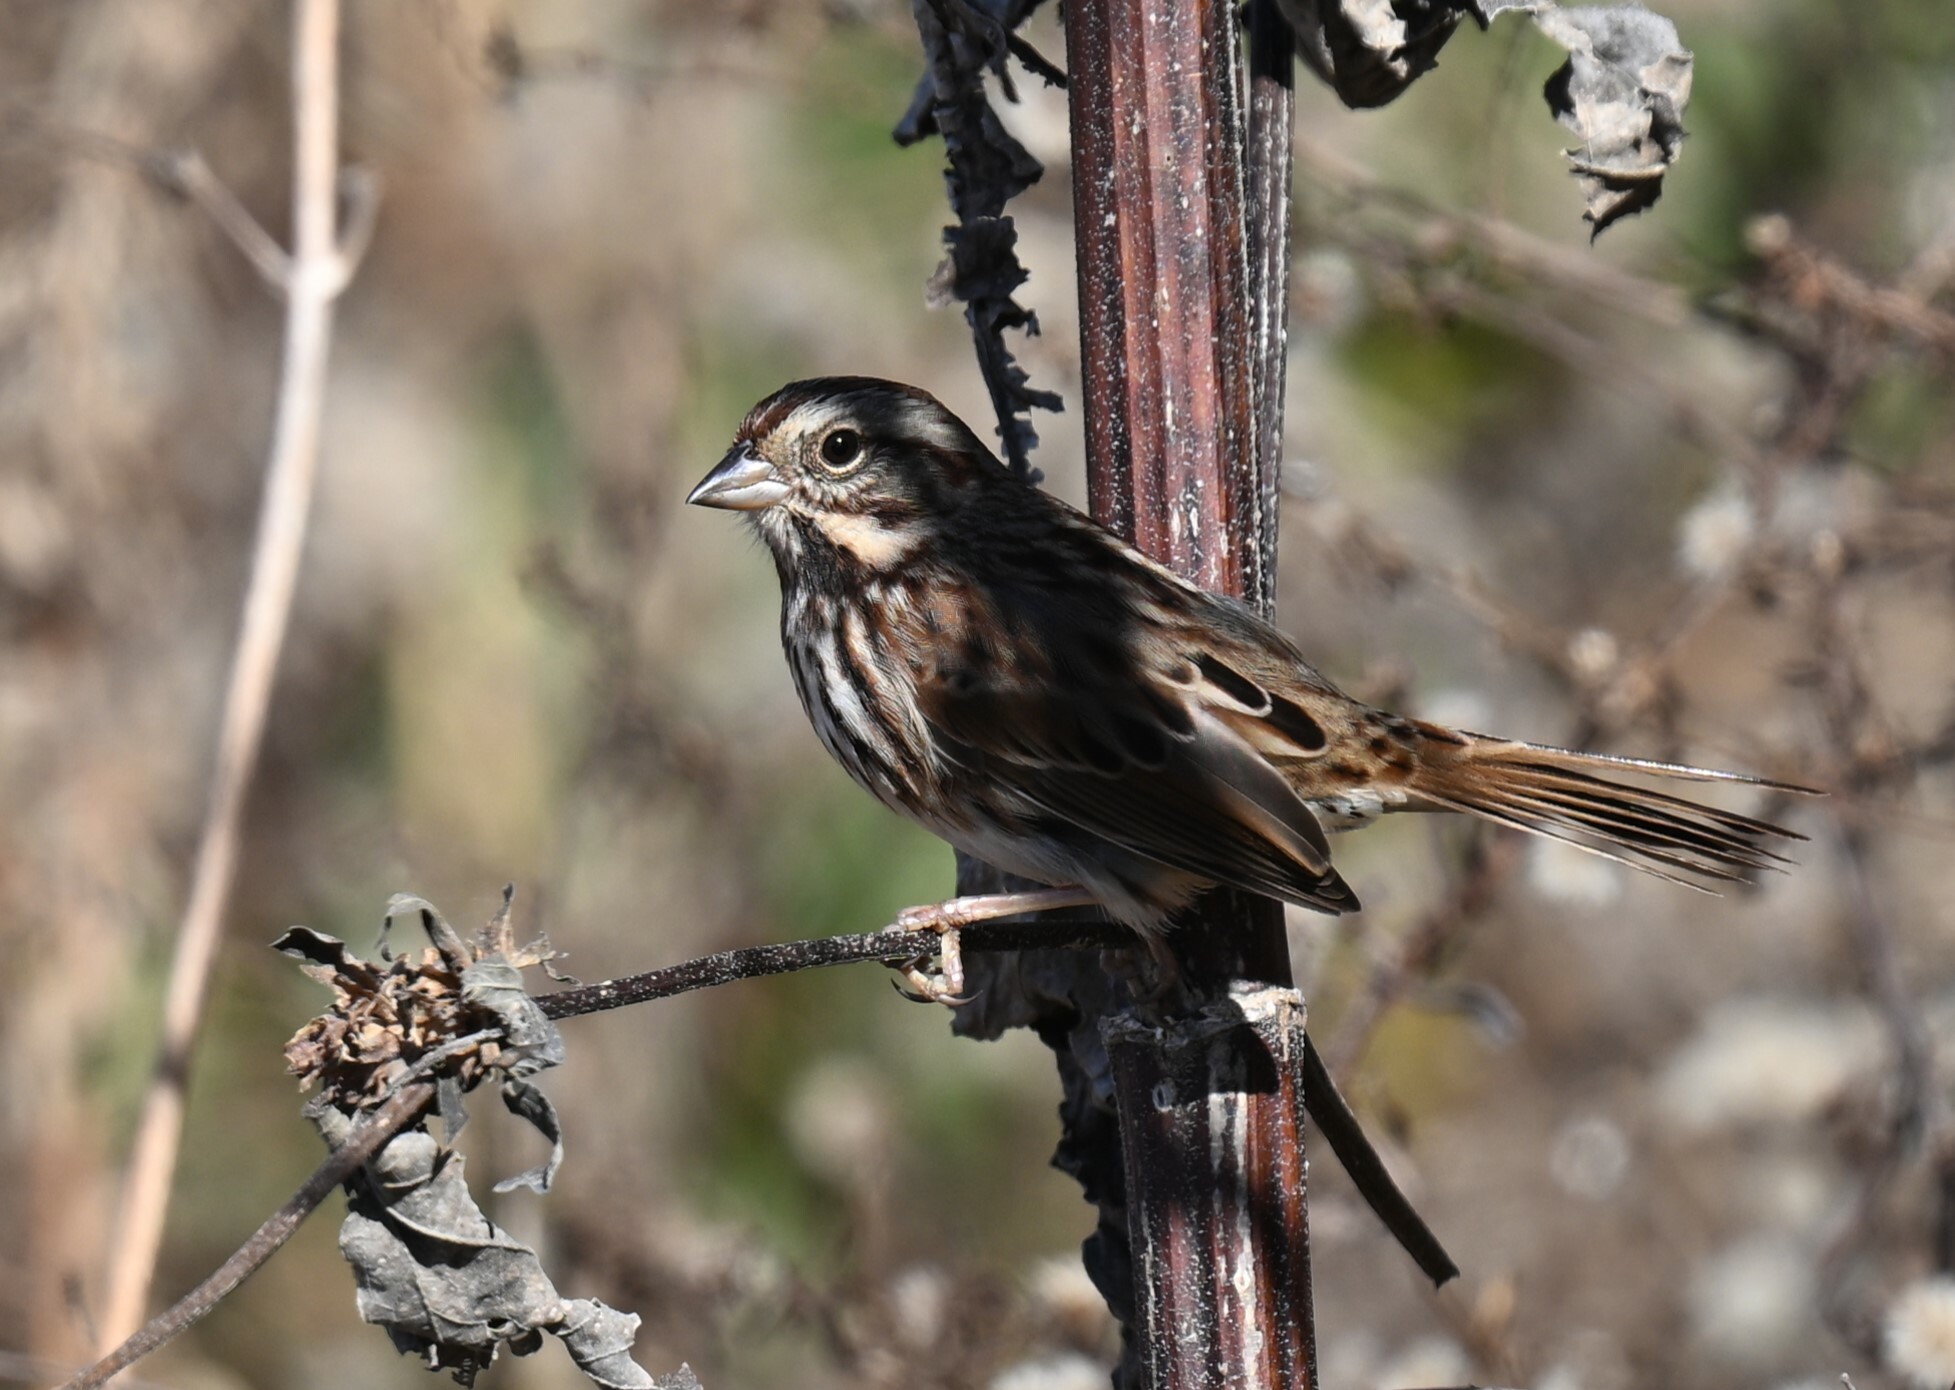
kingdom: Animalia
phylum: Chordata
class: Aves
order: Passeriformes
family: Passerellidae
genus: Melospiza
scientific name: Melospiza melodia
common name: Song sparrow
